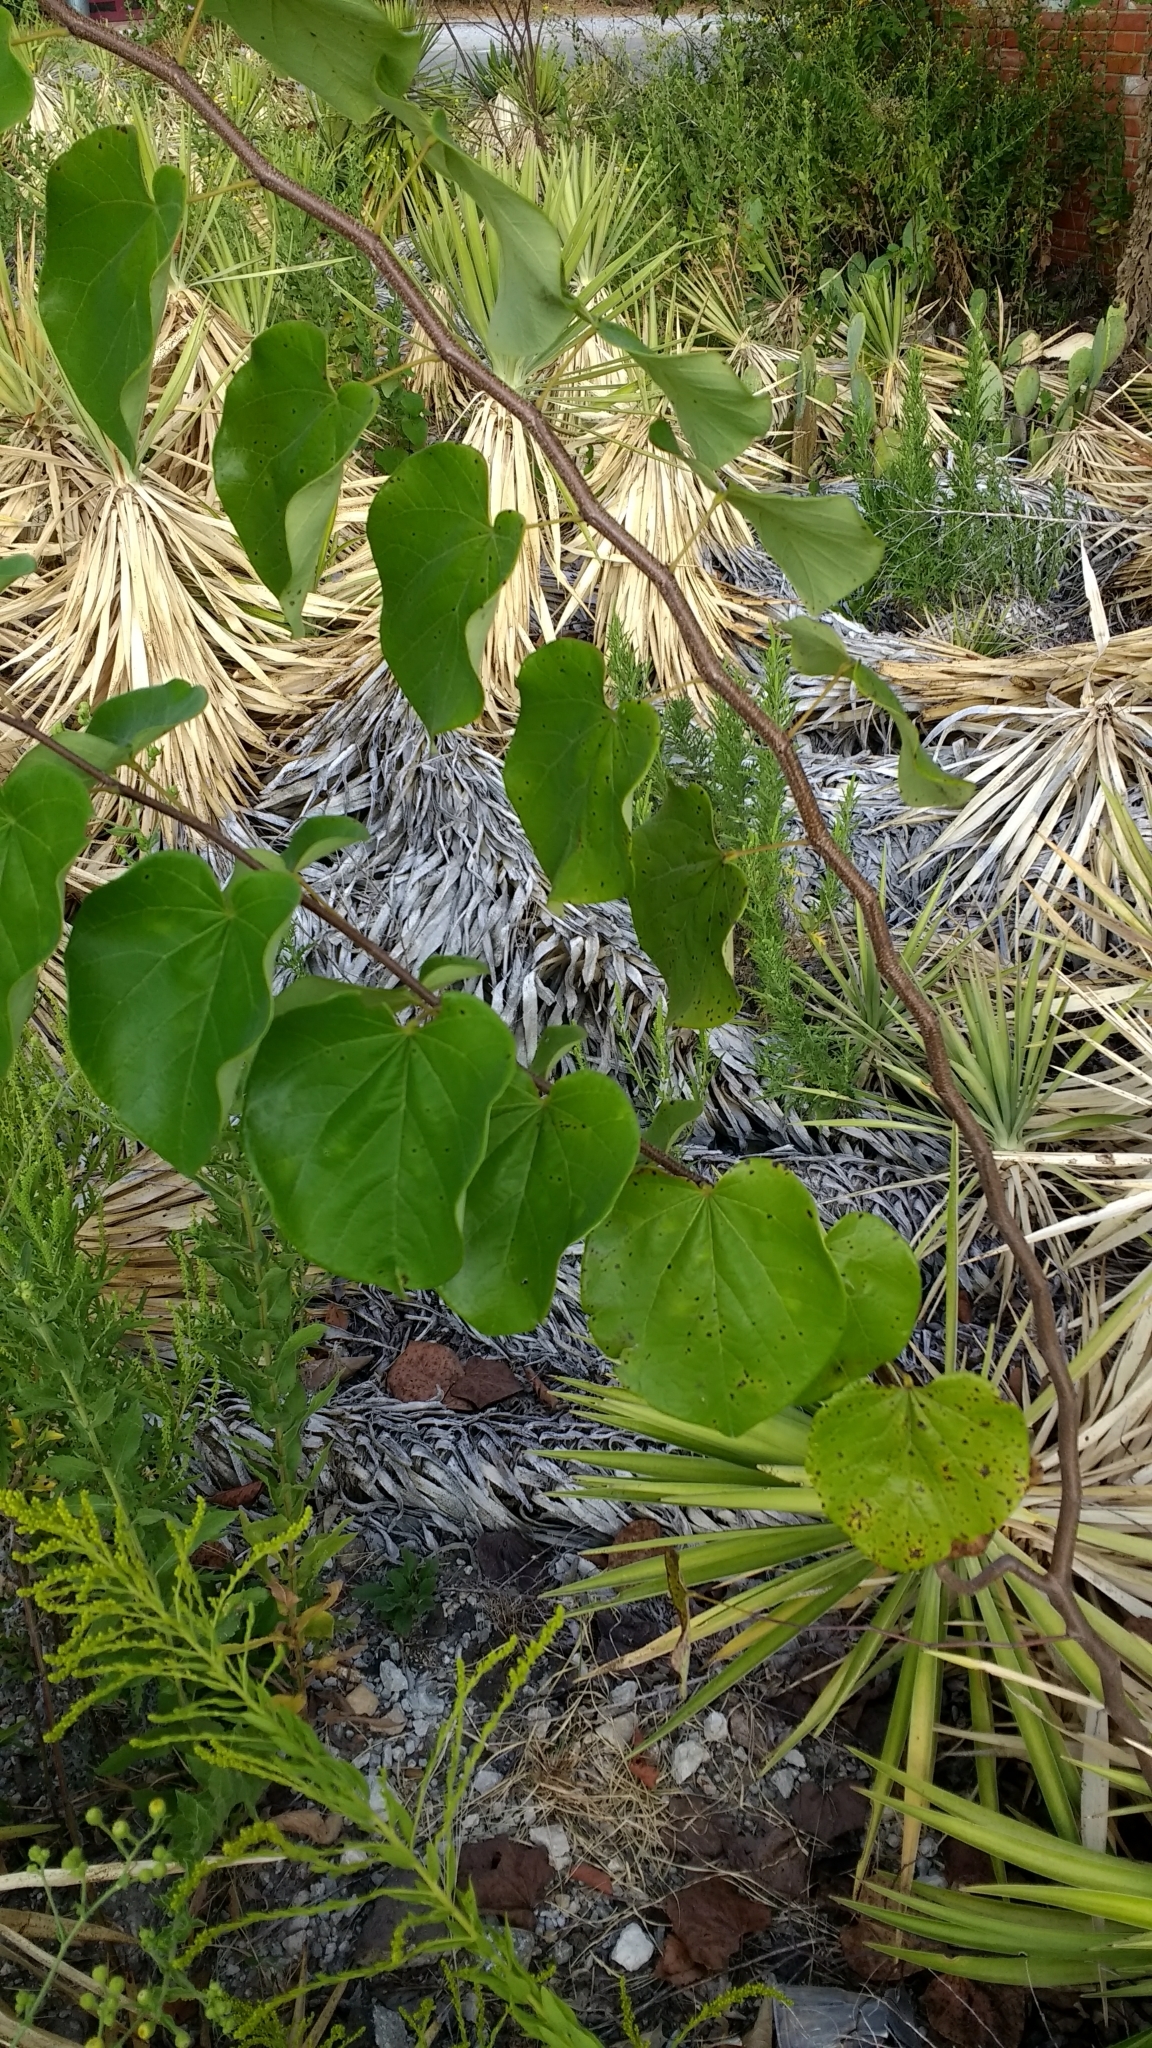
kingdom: Plantae
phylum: Tracheophyta
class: Magnoliopsida
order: Fabales
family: Fabaceae
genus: Cercis
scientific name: Cercis canadensis
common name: Eastern redbud
